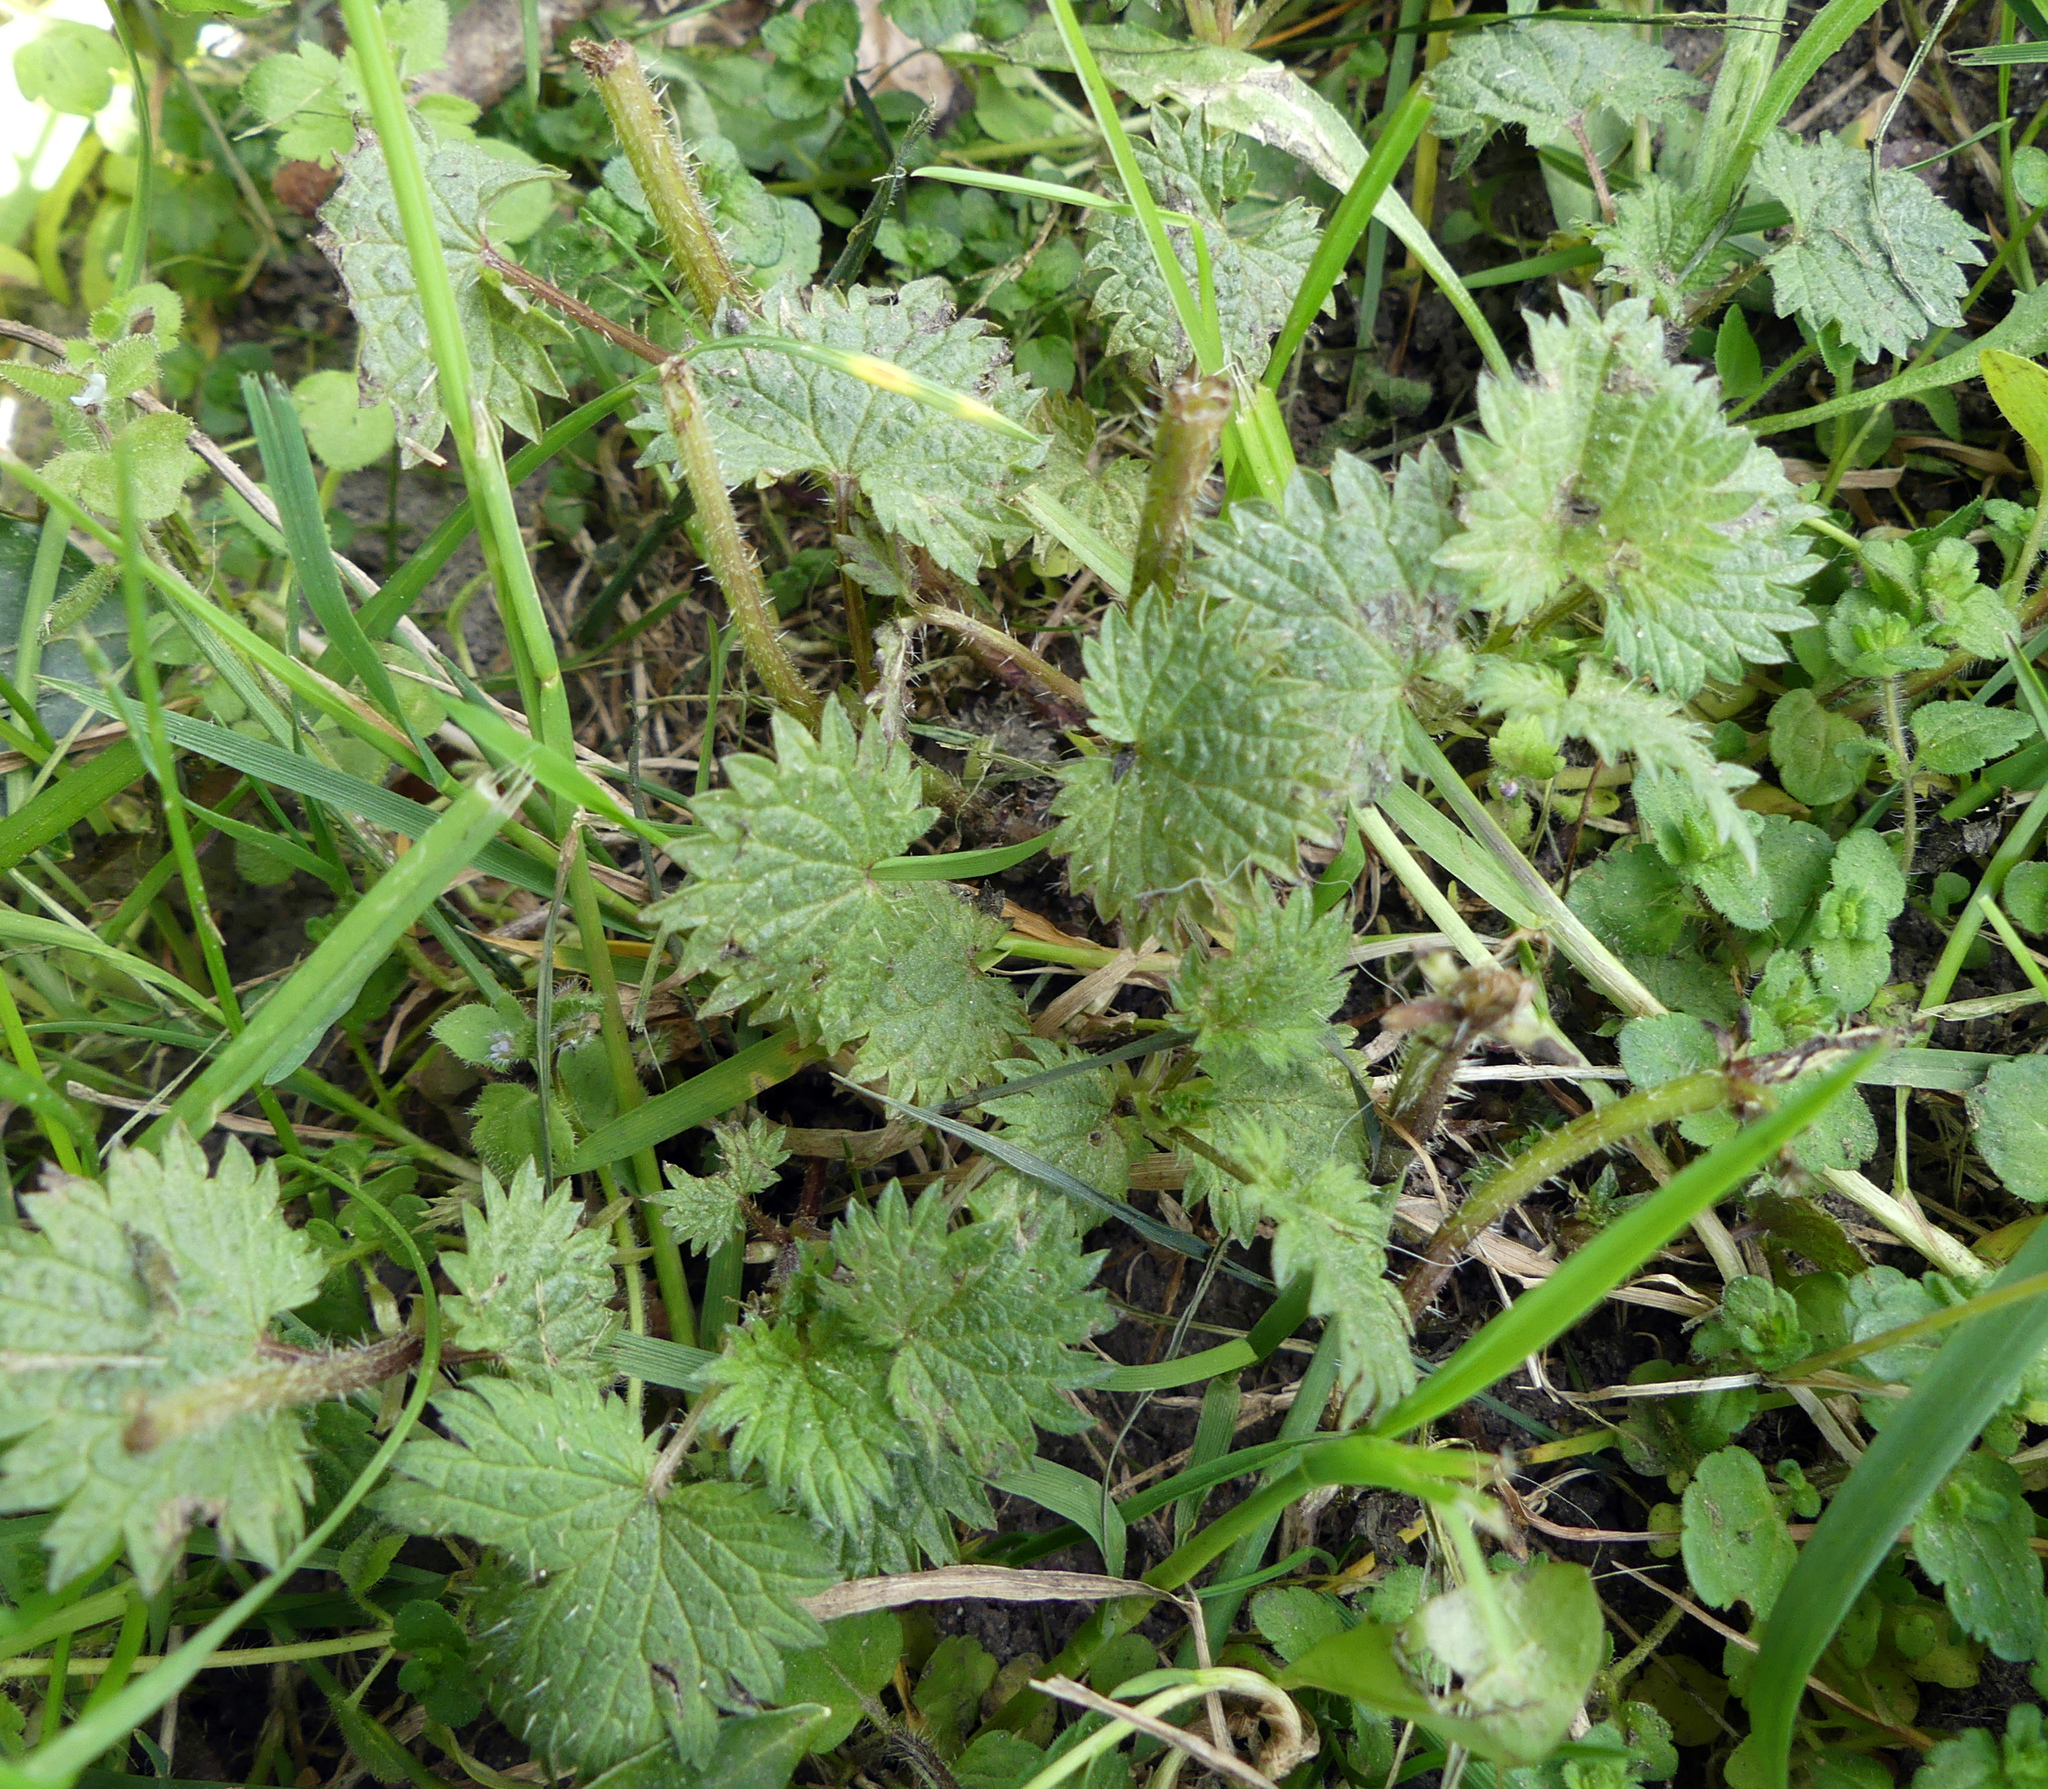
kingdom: Plantae
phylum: Tracheophyta
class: Magnoliopsida
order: Rosales
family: Urticaceae
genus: Urtica
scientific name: Urtica urens
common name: Dwarf nettle
